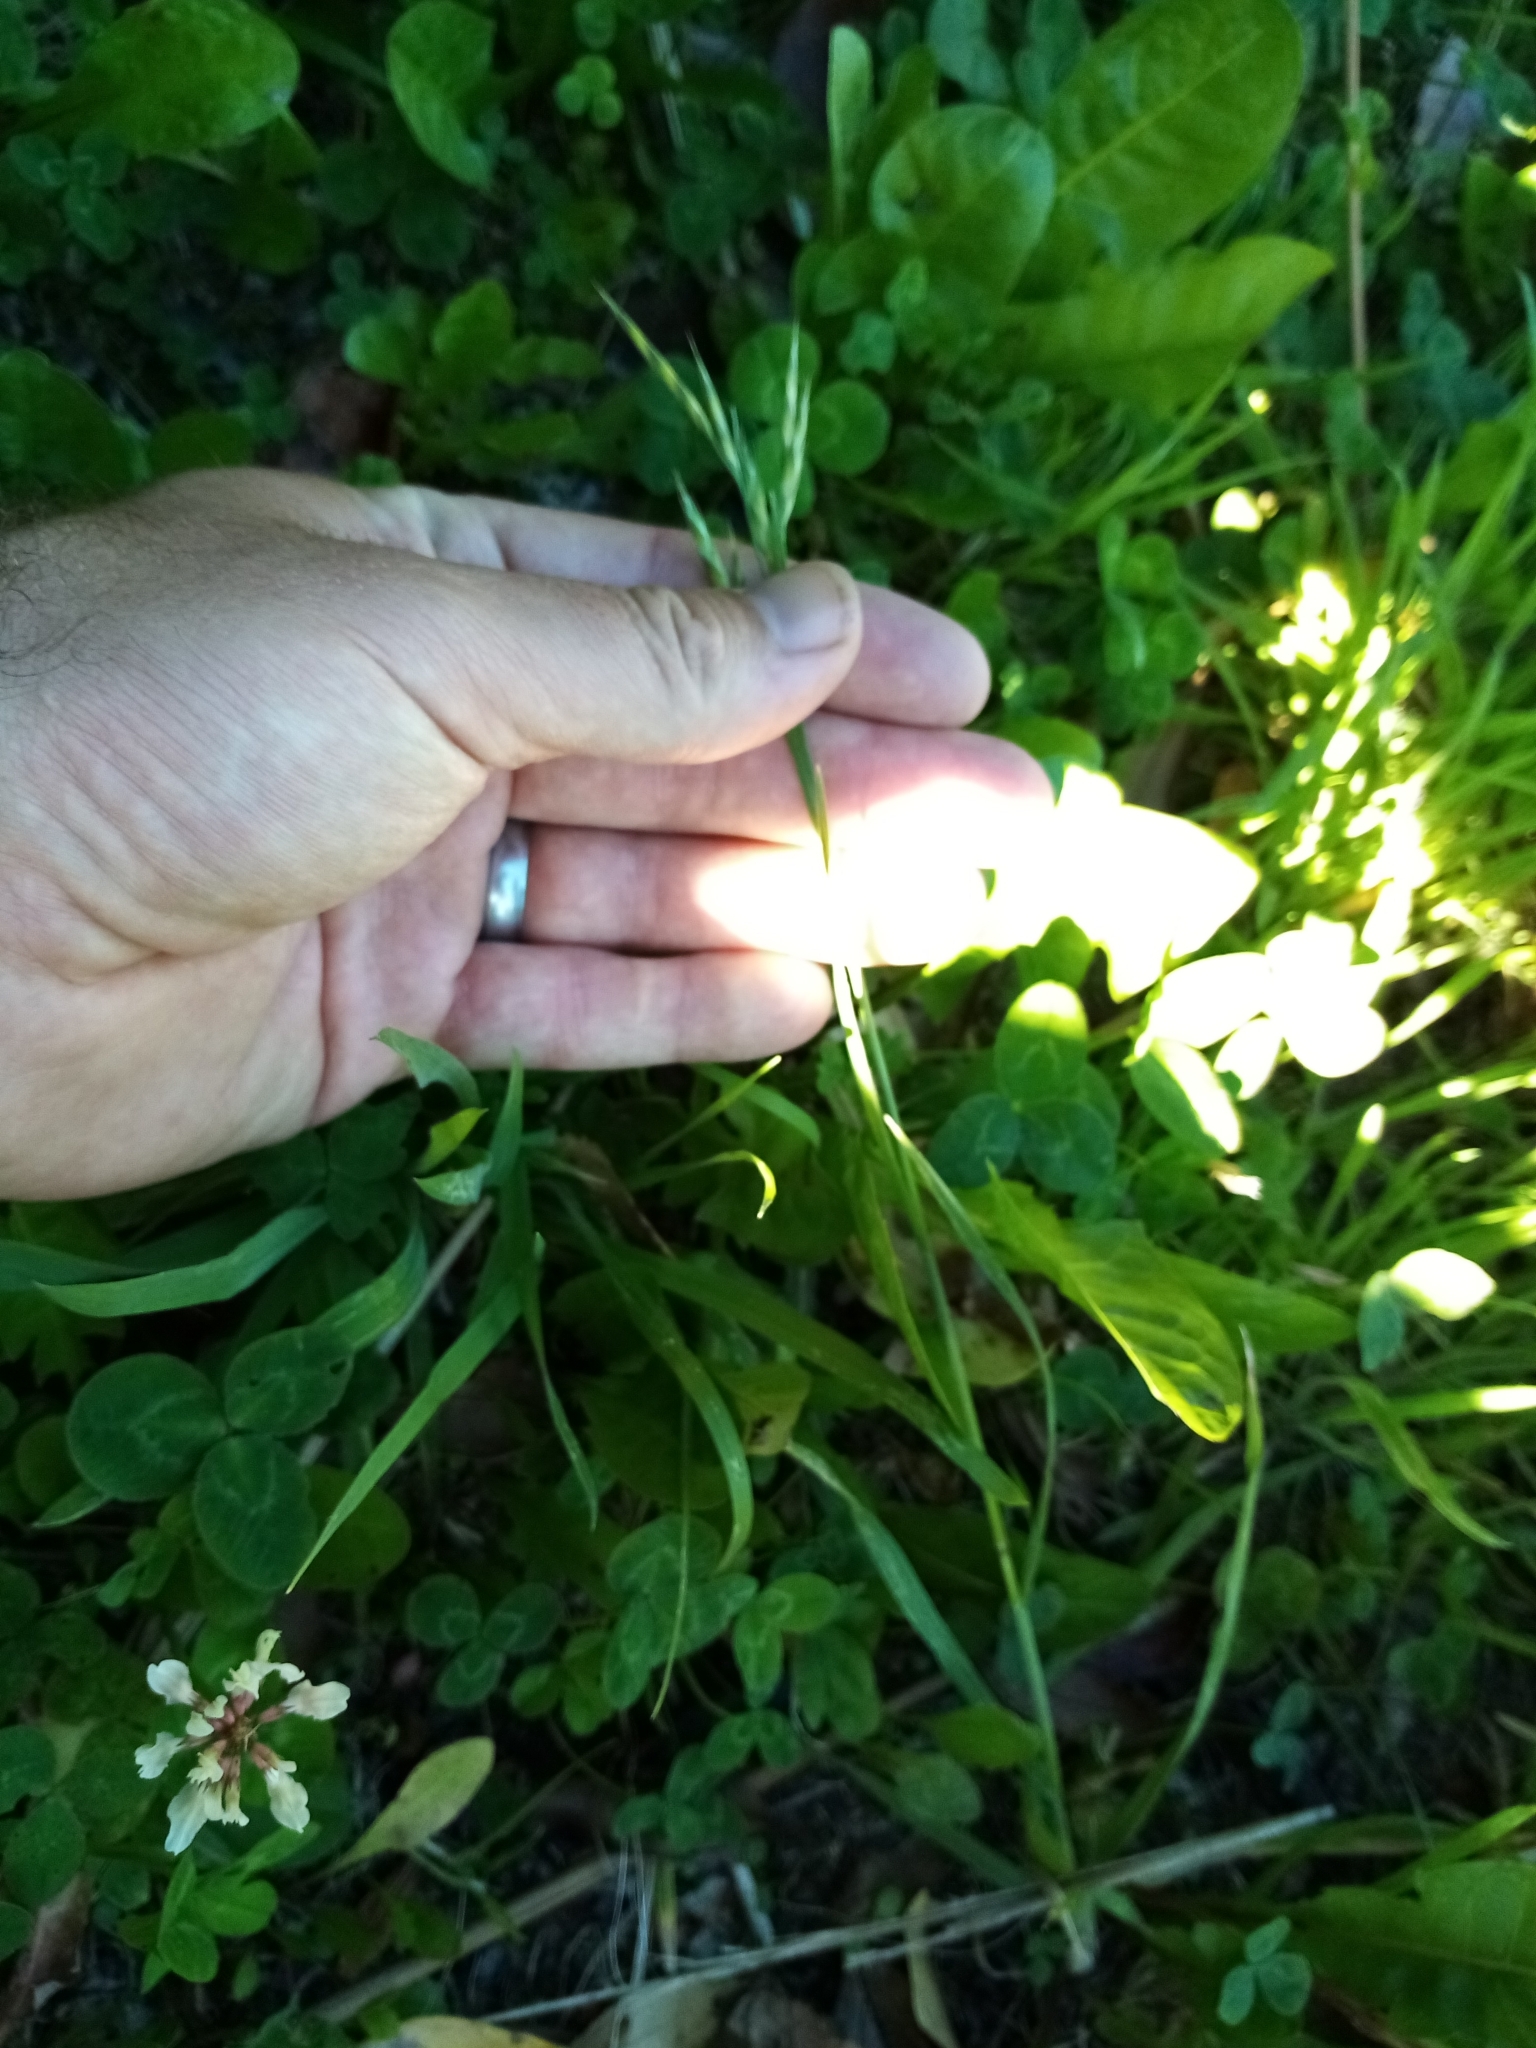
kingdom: Plantae
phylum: Tracheophyta
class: Liliopsida
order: Poales
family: Poaceae
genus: Bromus
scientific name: Bromus cebadilla
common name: Southern brome
